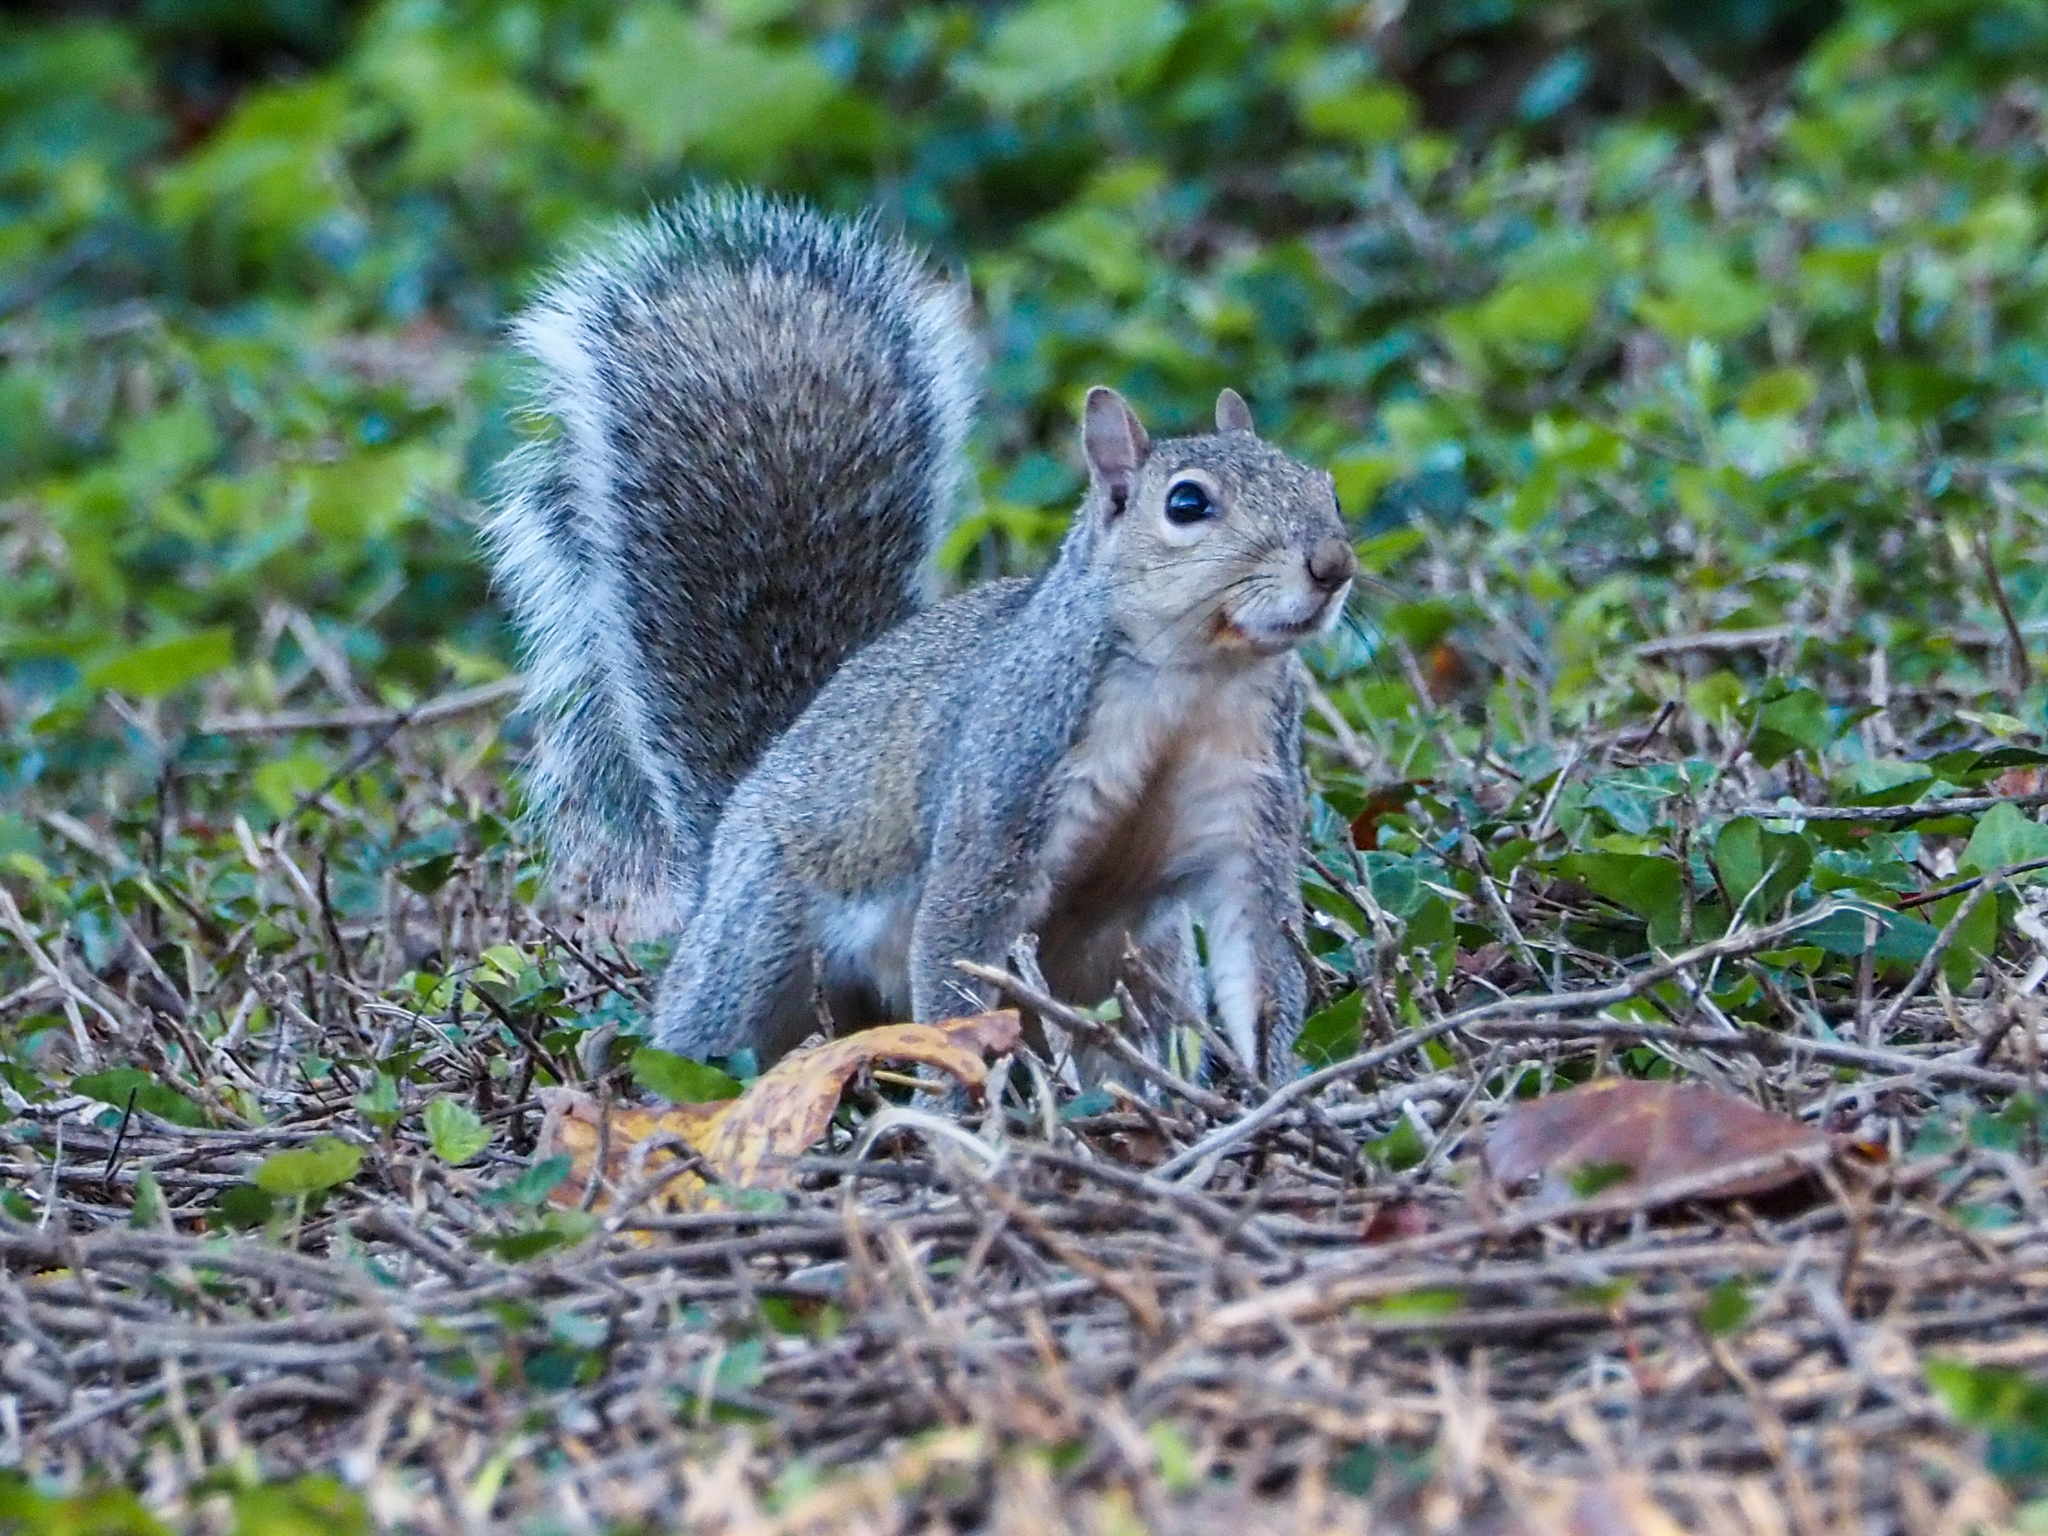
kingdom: Animalia
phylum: Chordata
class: Mammalia
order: Rodentia
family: Sciuridae
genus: Sciurus
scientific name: Sciurus carolinensis
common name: Eastern gray squirrel
